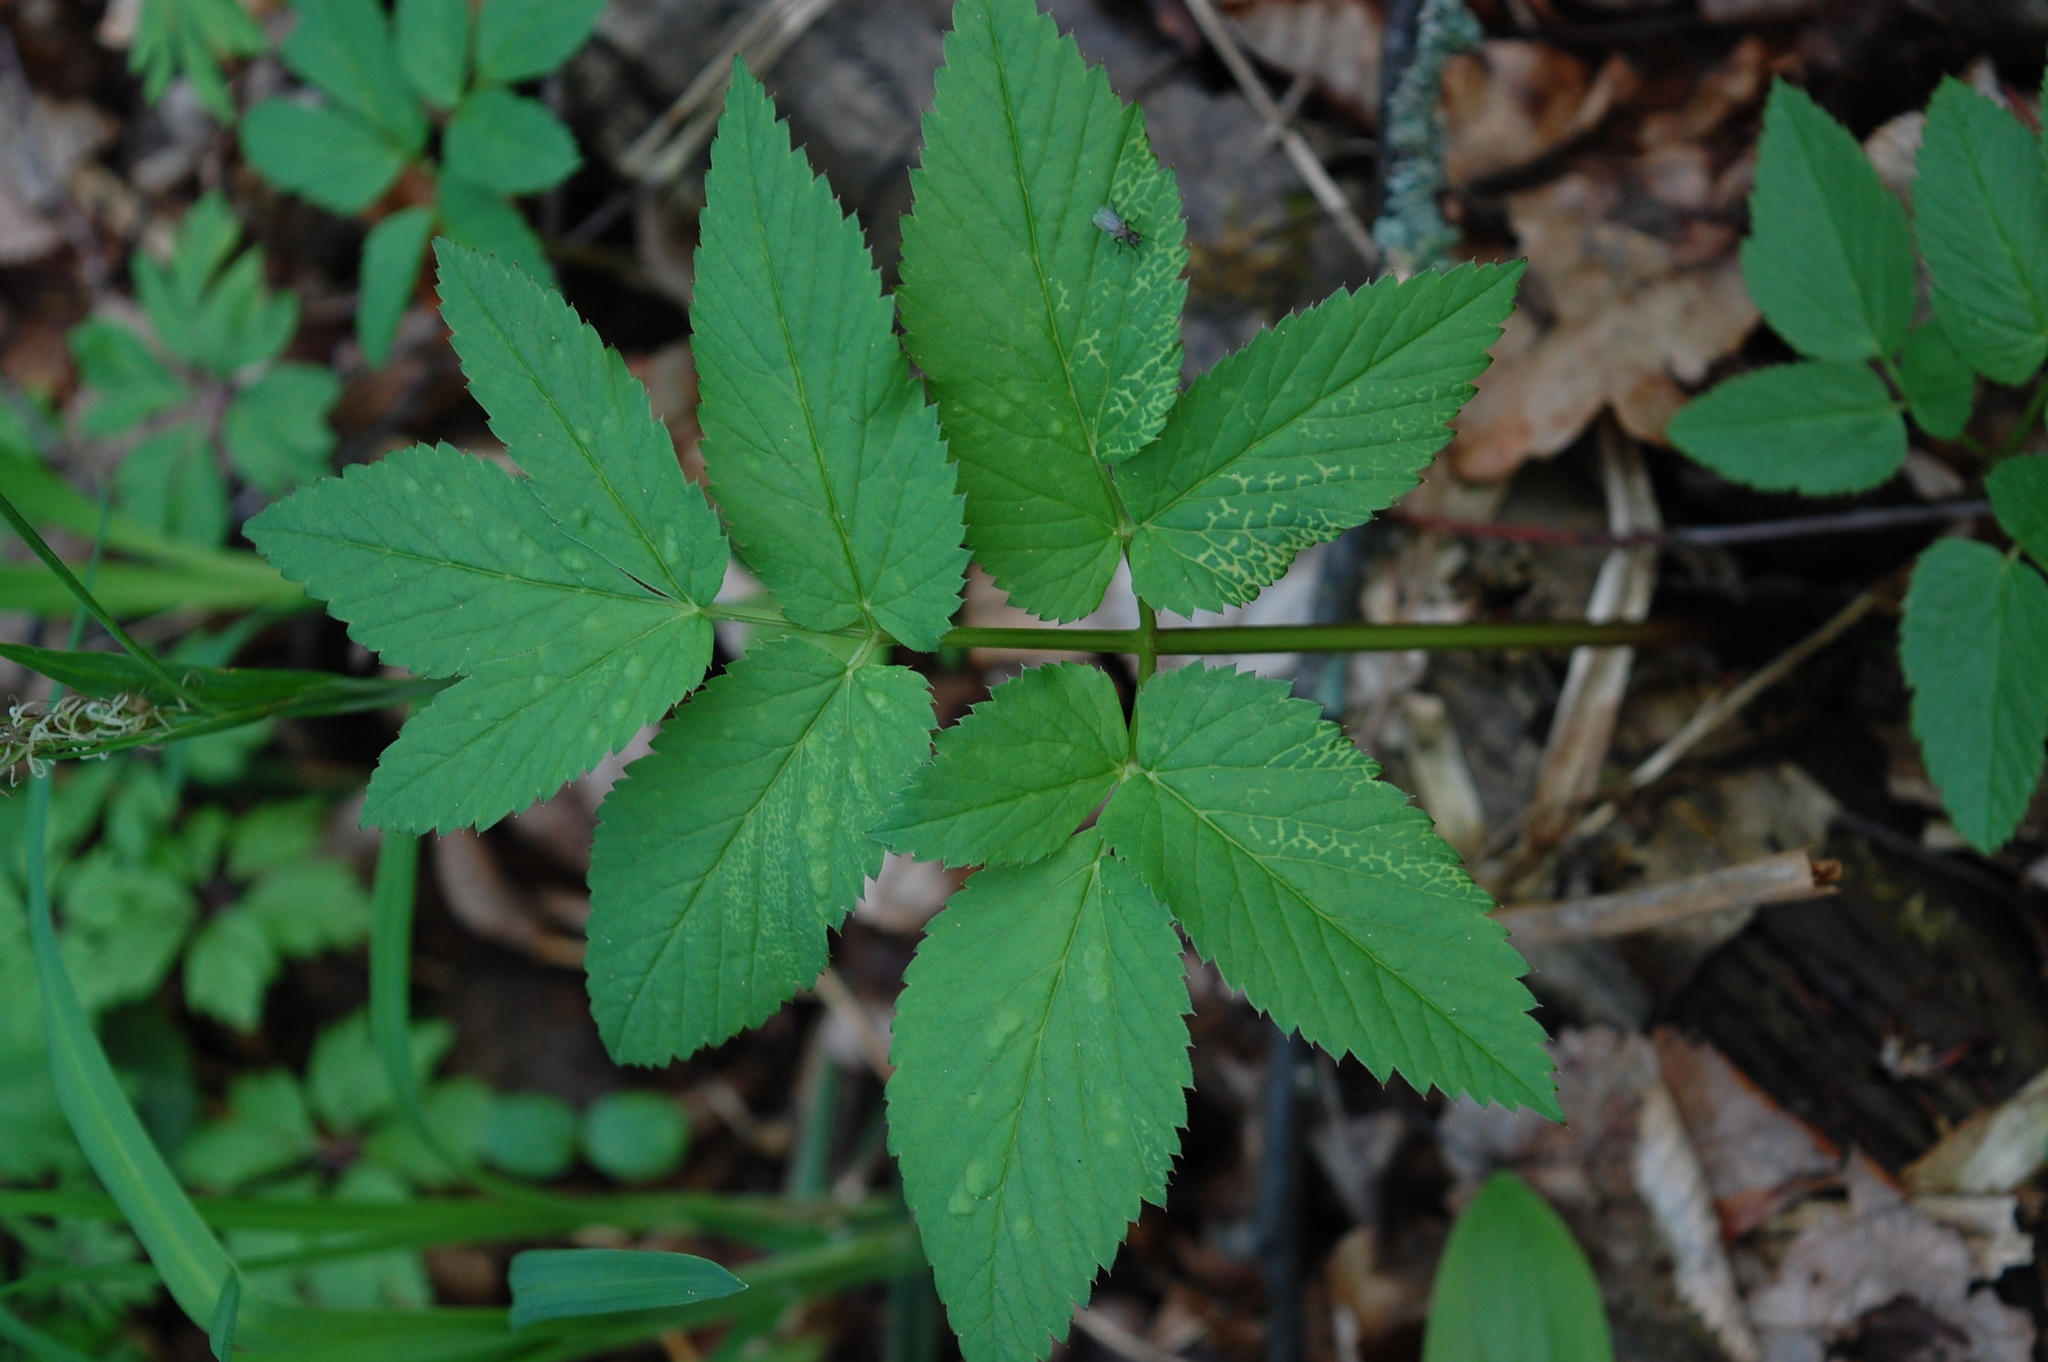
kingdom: Plantae
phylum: Tracheophyta
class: Magnoliopsida
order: Apiales
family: Apiaceae
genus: Aegopodium
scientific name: Aegopodium podagraria
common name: Ground-elder
